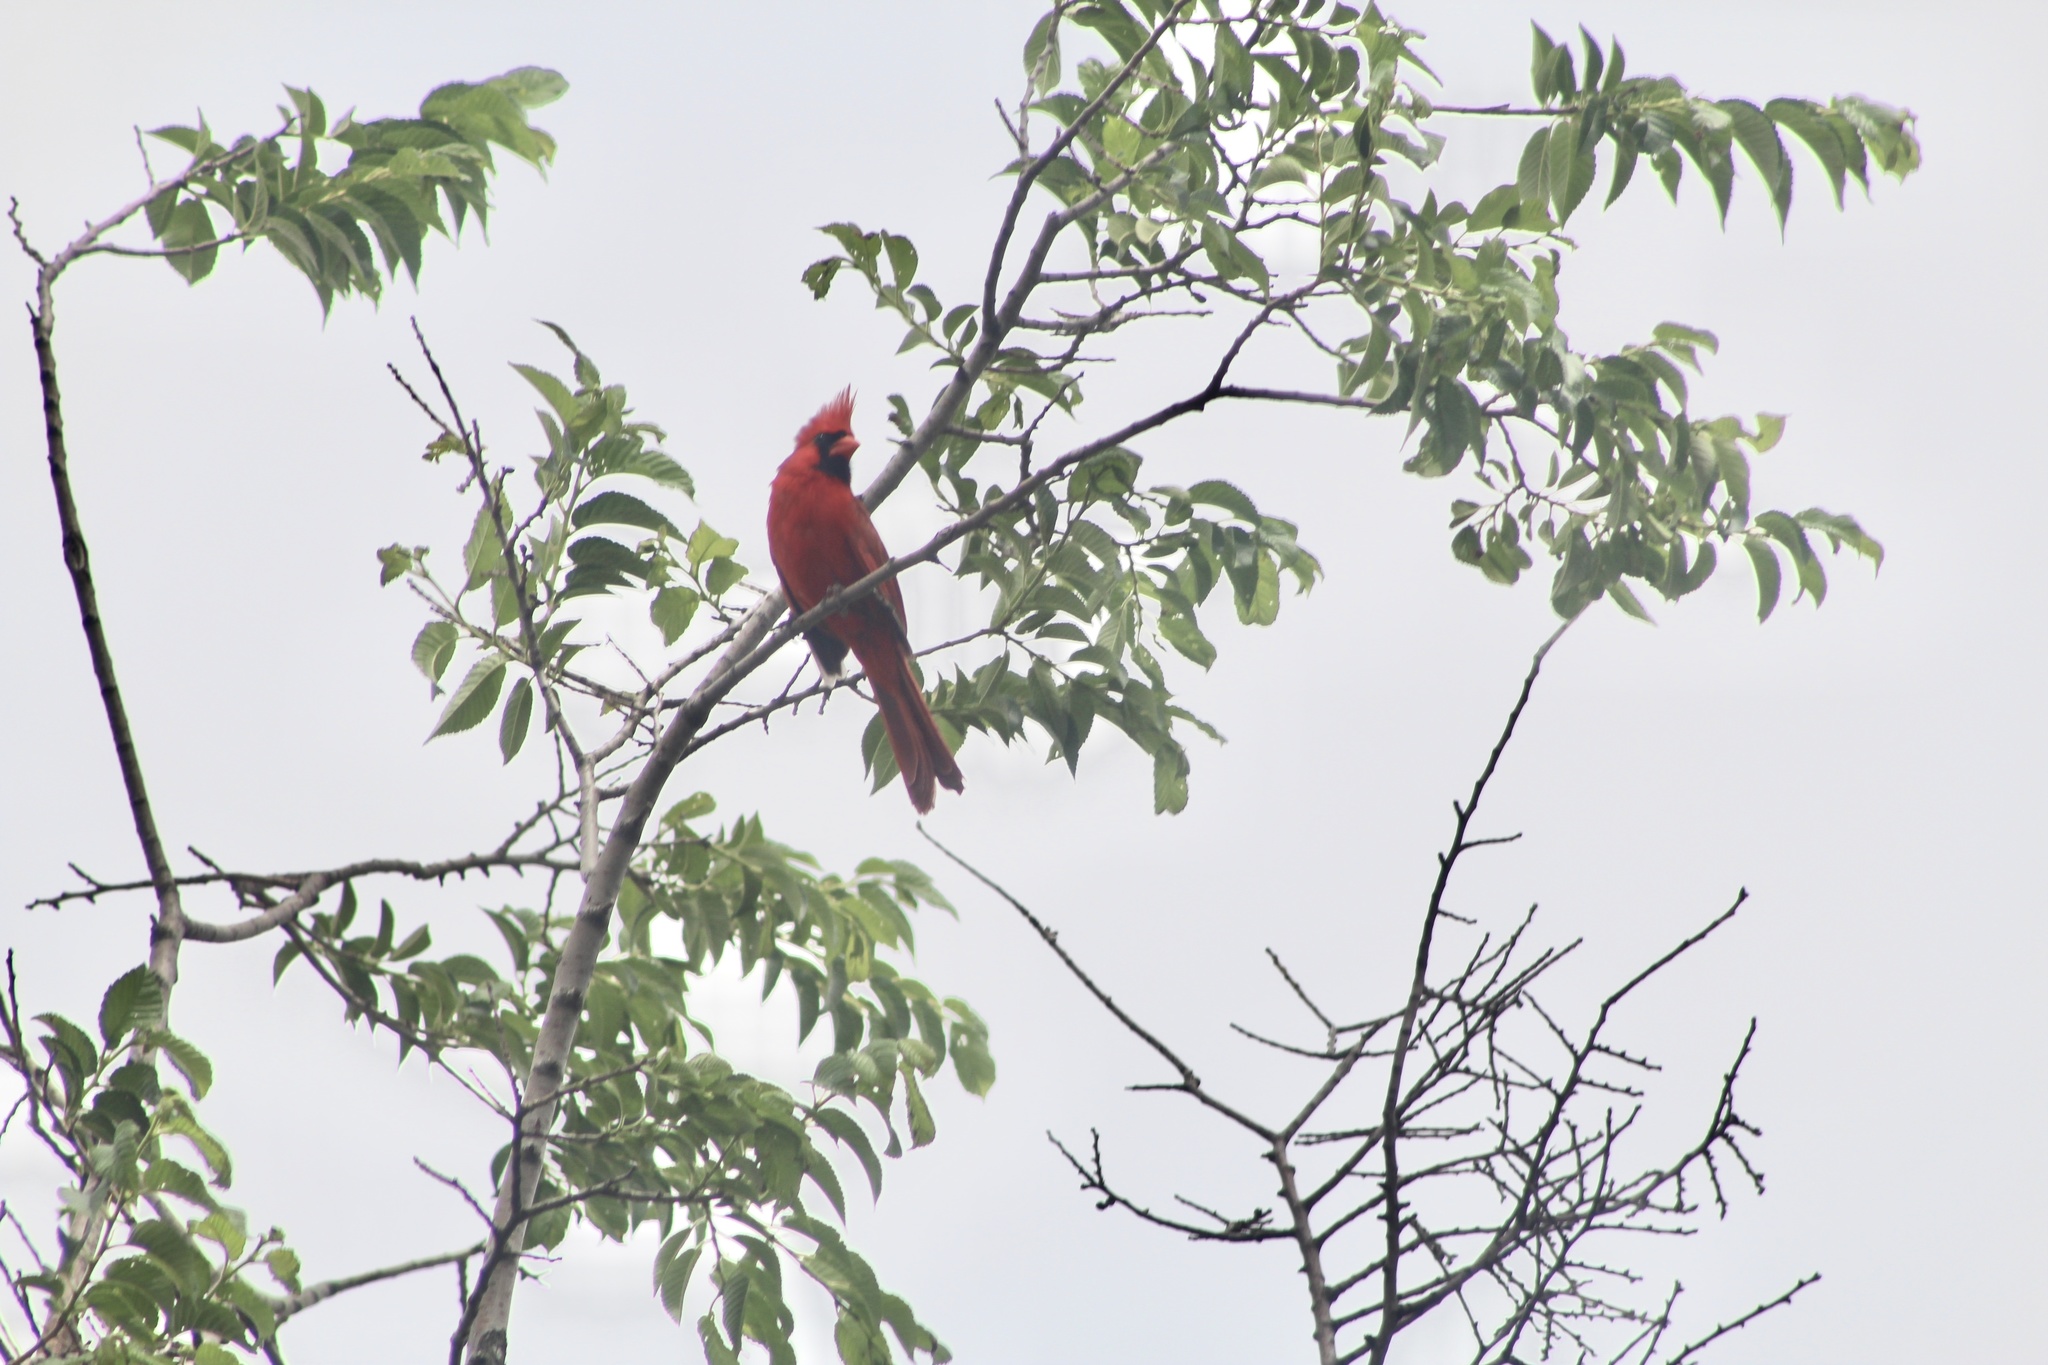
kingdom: Animalia
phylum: Chordata
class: Aves
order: Passeriformes
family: Cardinalidae
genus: Cardinalis
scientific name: Cardinalis cardinalis
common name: Northern cardinal
